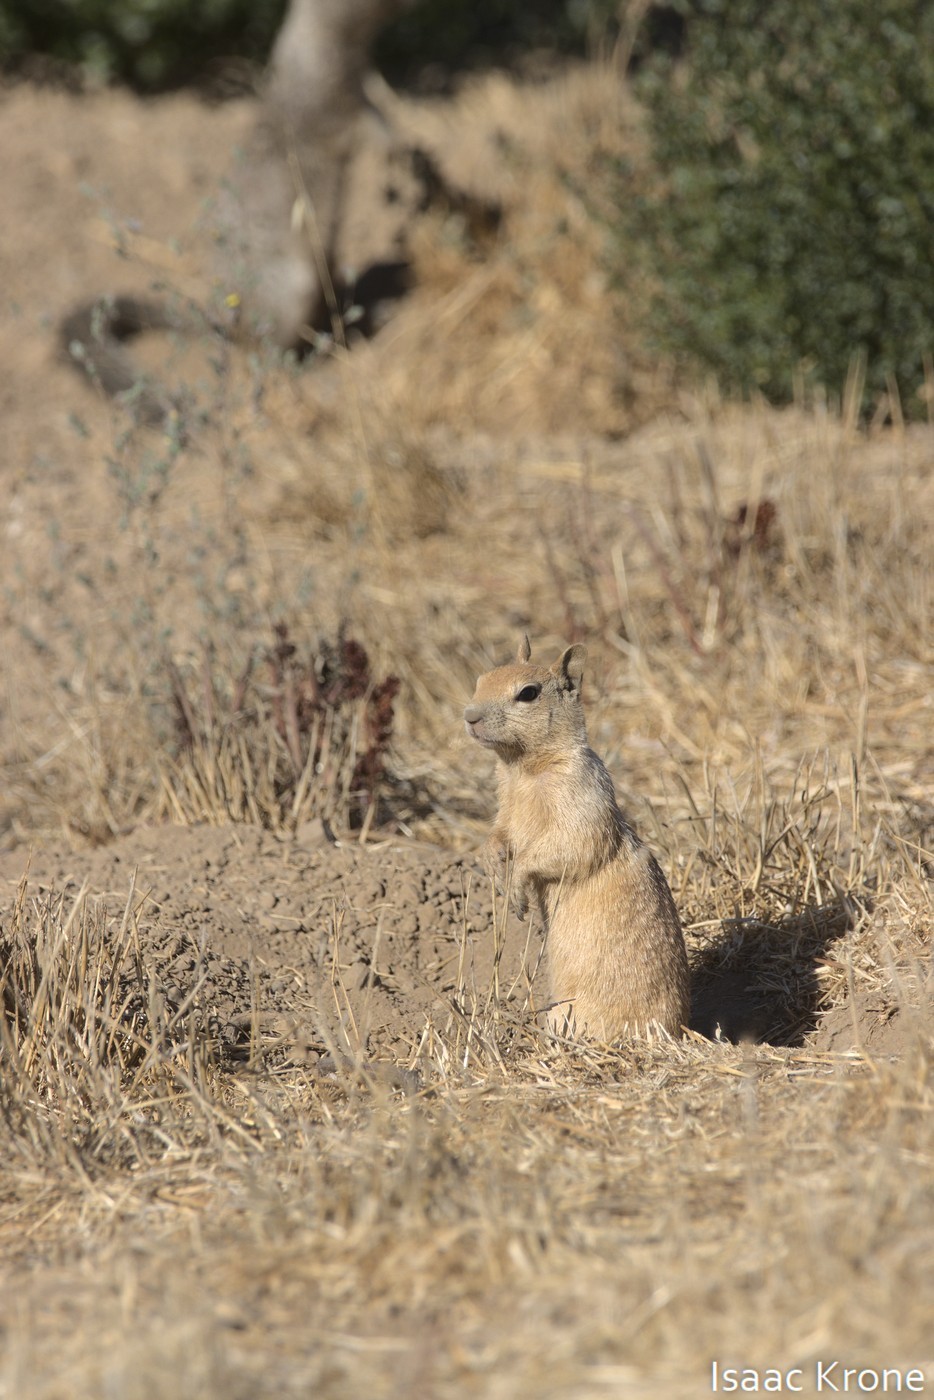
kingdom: Animalia
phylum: Chordata
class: Mammalia
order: Rodentia
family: Sciuridae
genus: Otospermophilus
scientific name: Otospermophilus beecheyi
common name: California ground squirrel
